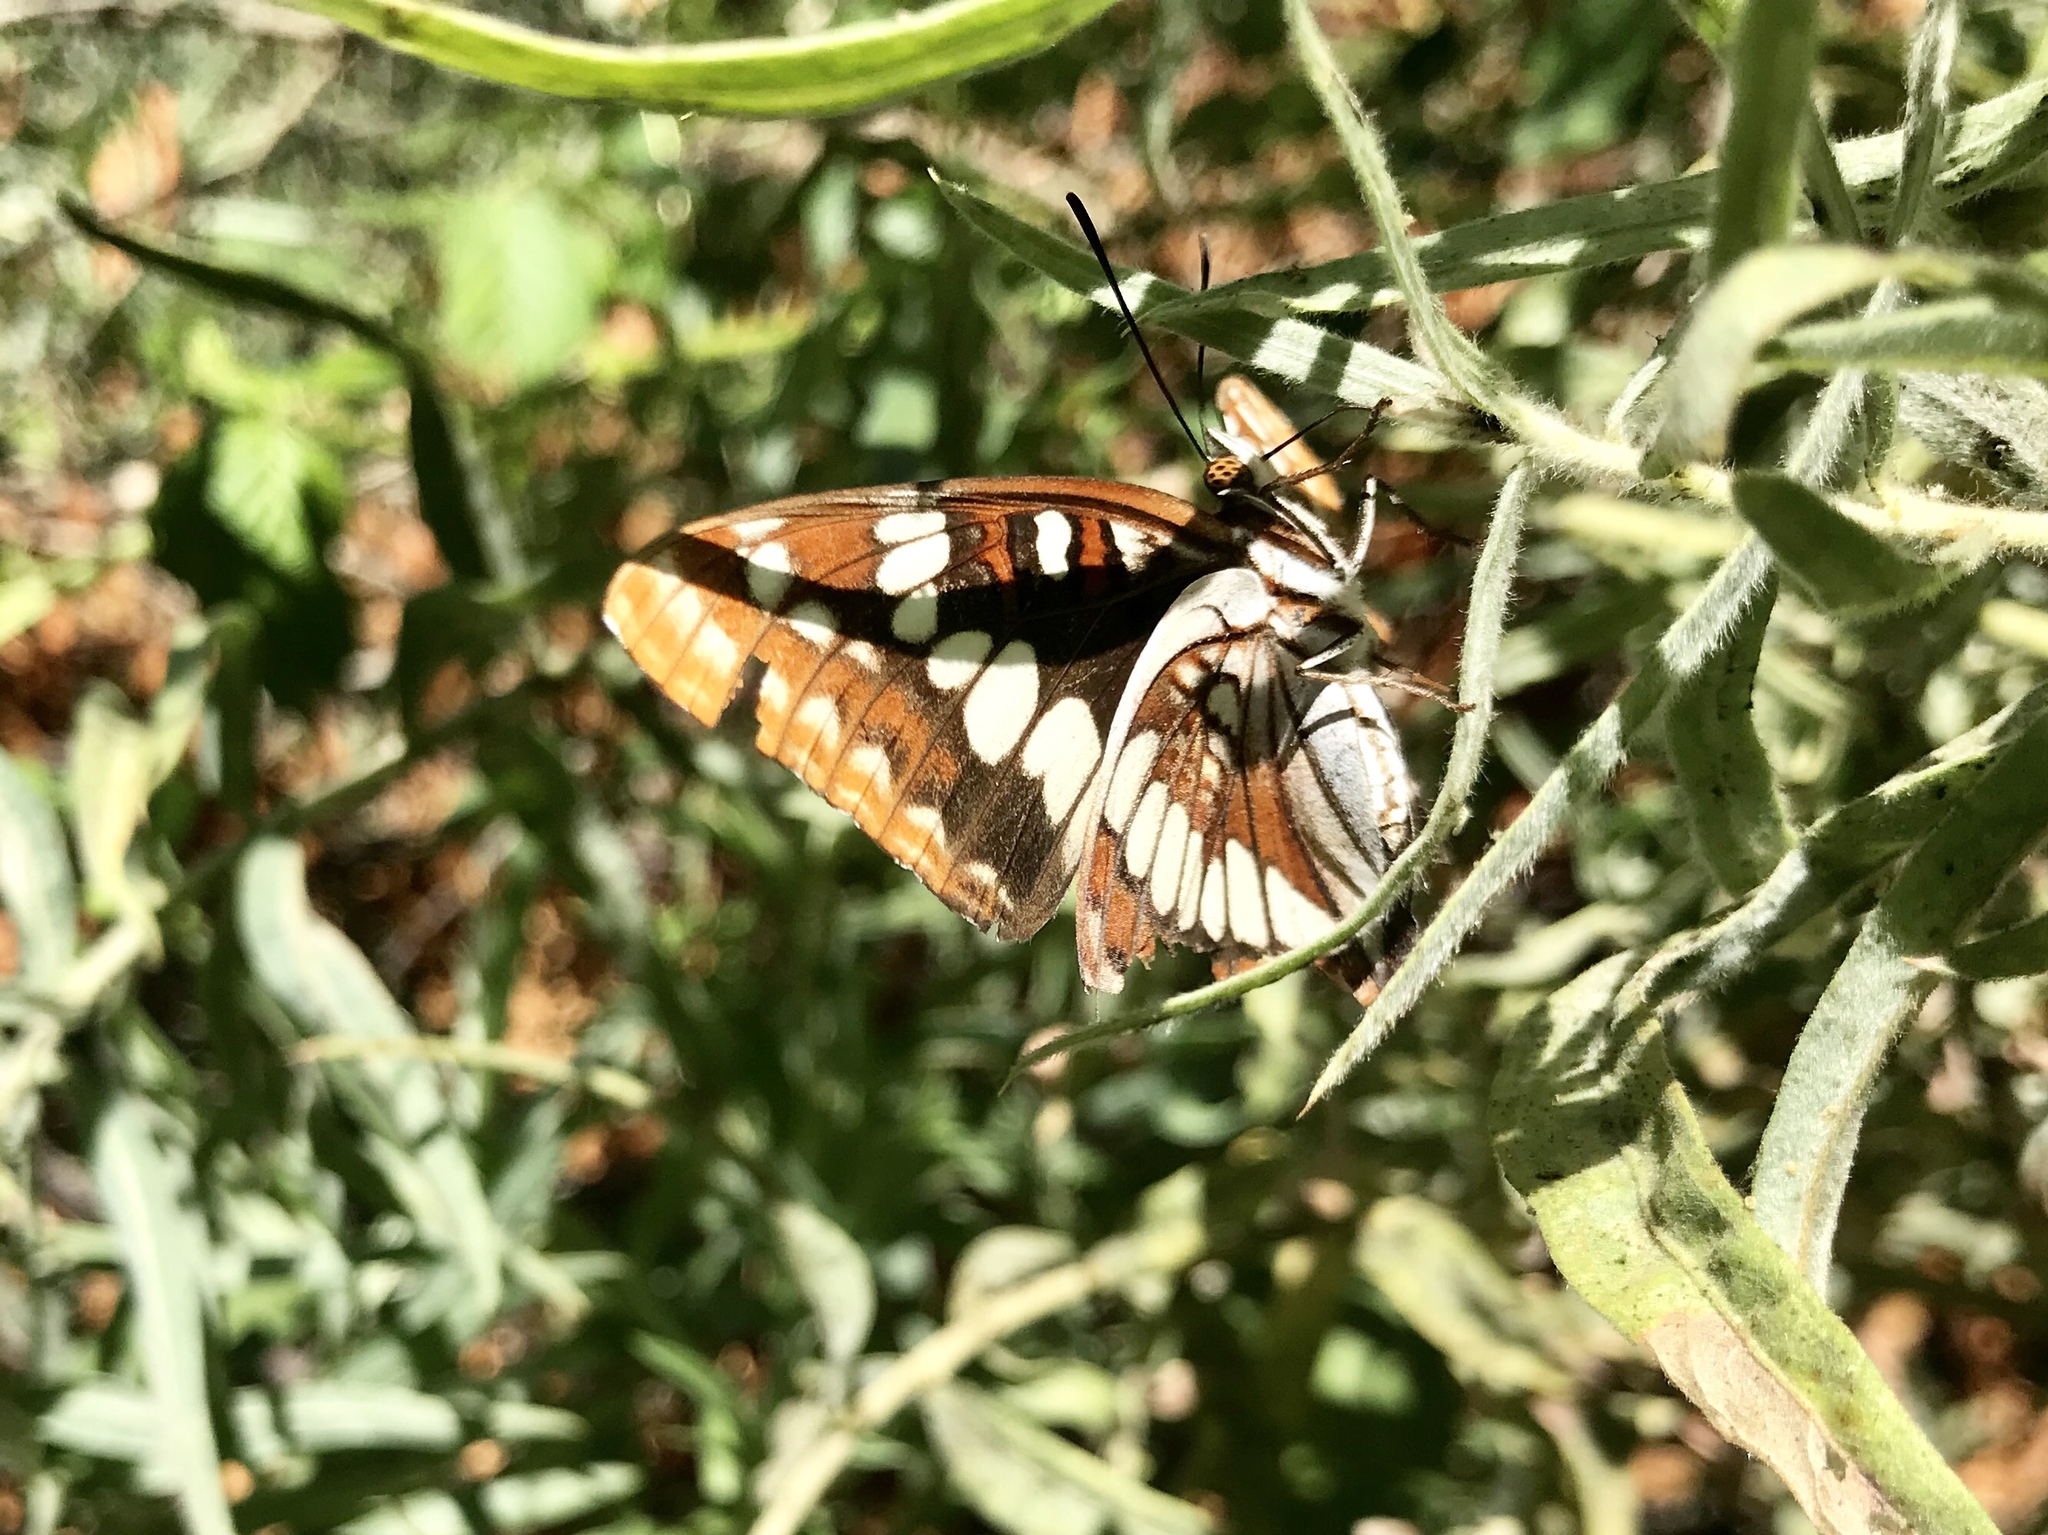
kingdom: Animalia
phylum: Arthropoda
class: Insecta
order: Lepidoptera
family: Nymphalidae
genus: Limenitis
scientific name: Limenitis lorquini
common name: Lorquin's admiral
